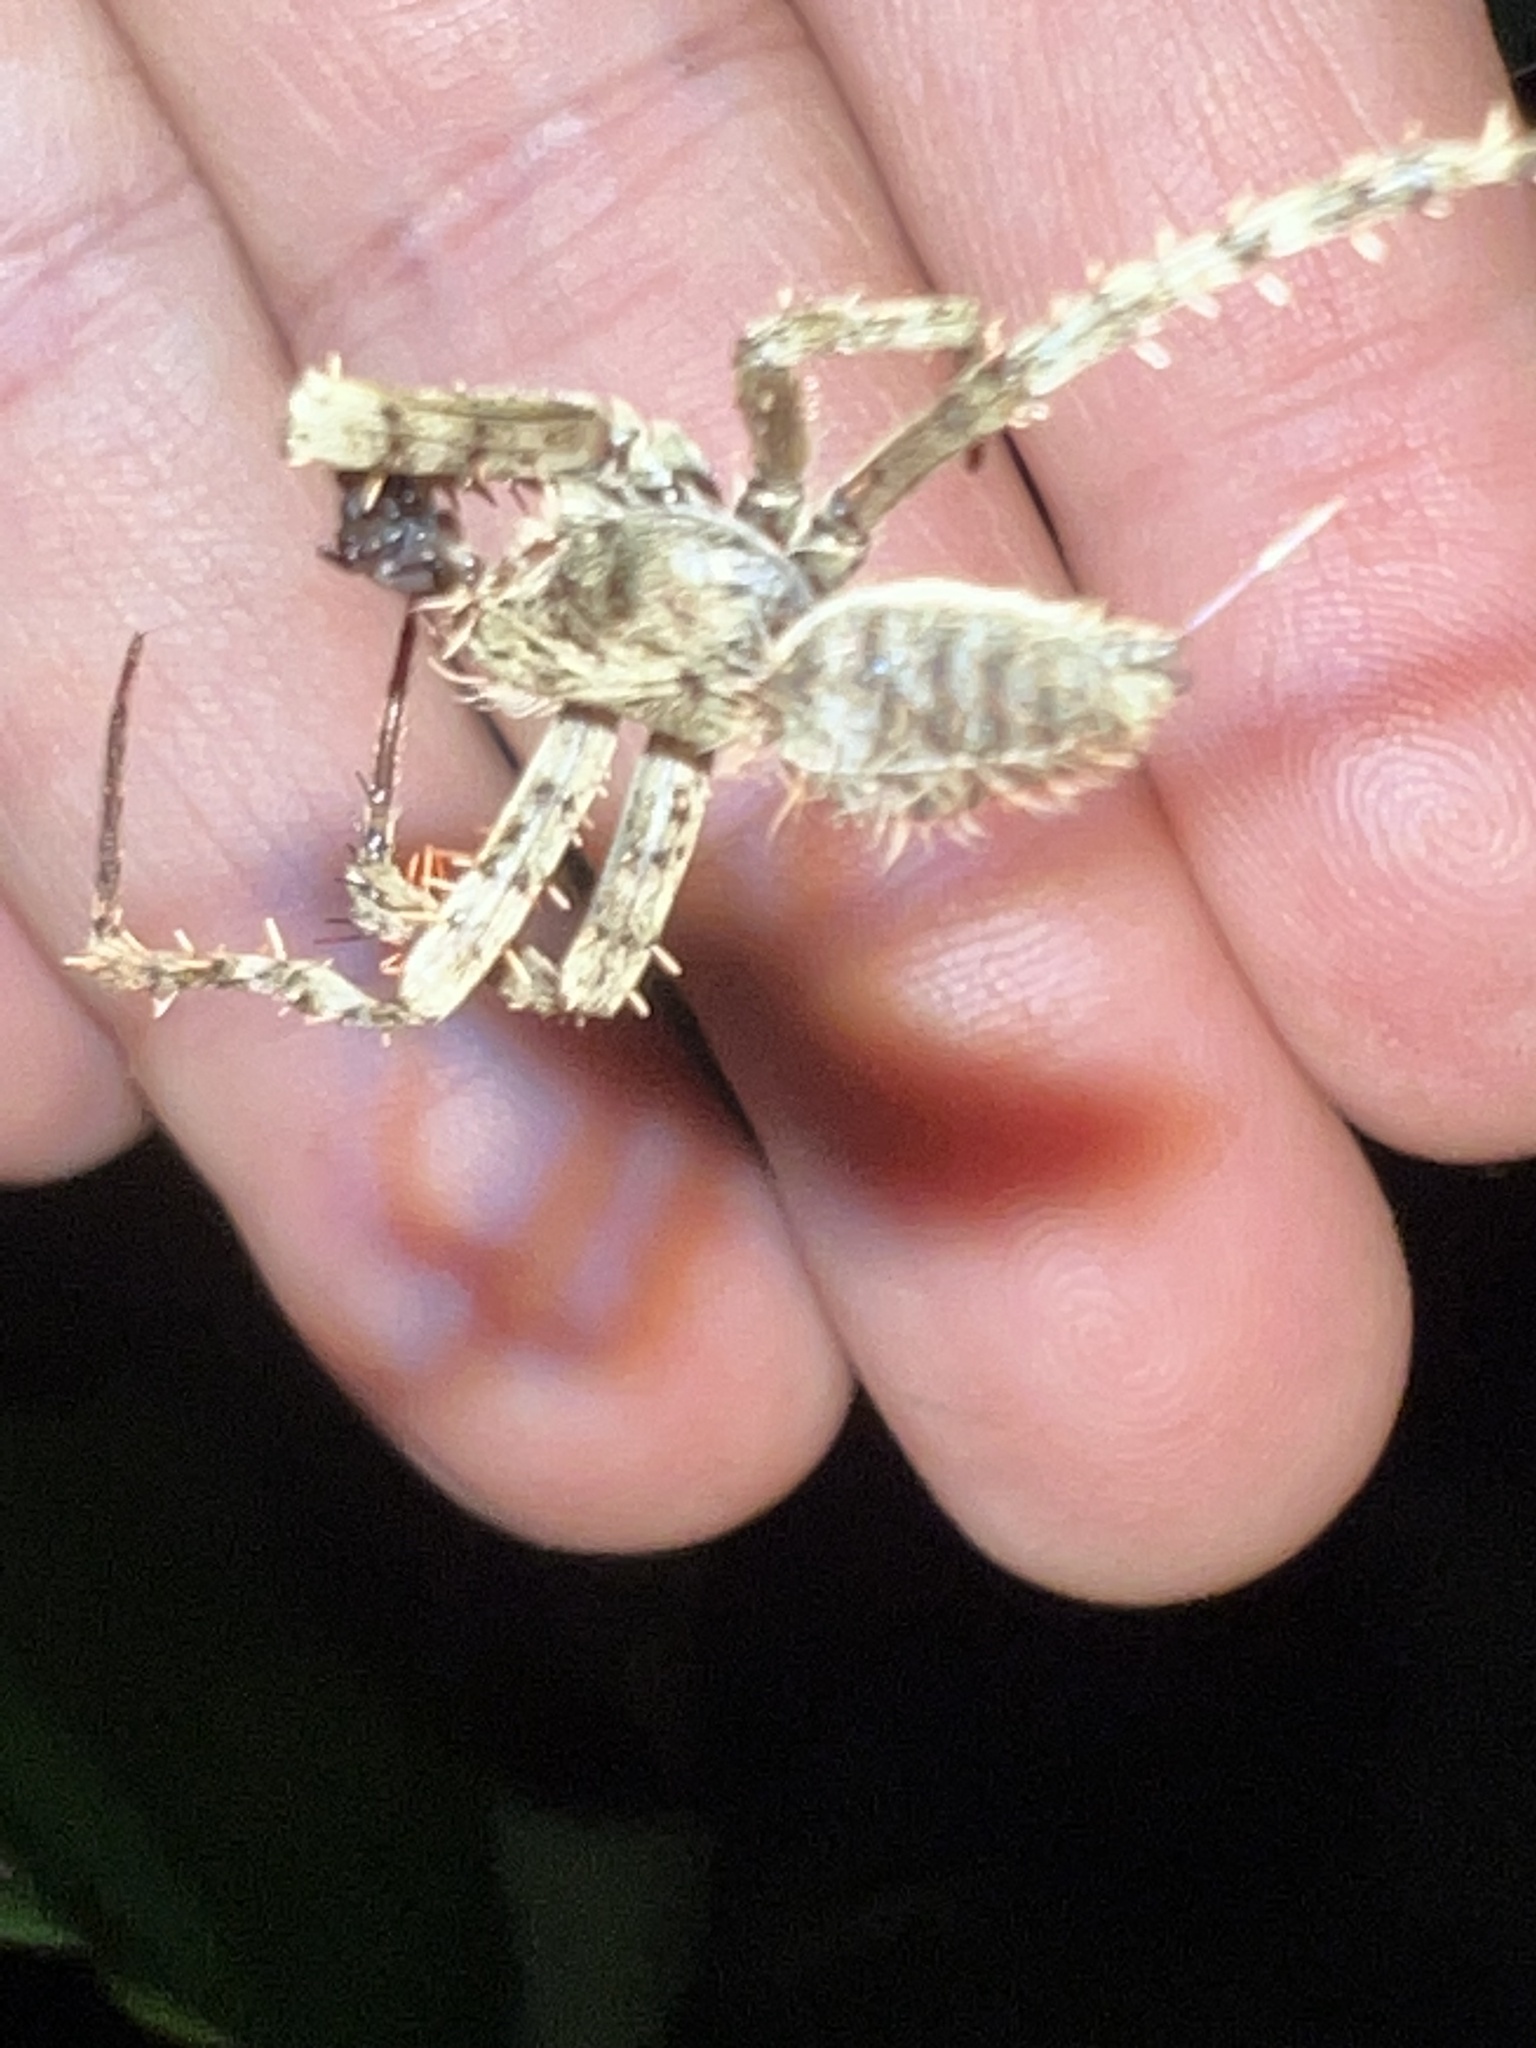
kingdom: Animalia
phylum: Arthropoda
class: Arachnida
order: Araneae
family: Araneidae
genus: Eriophora
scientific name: Eriophora fuliginea
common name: Orb weavers
